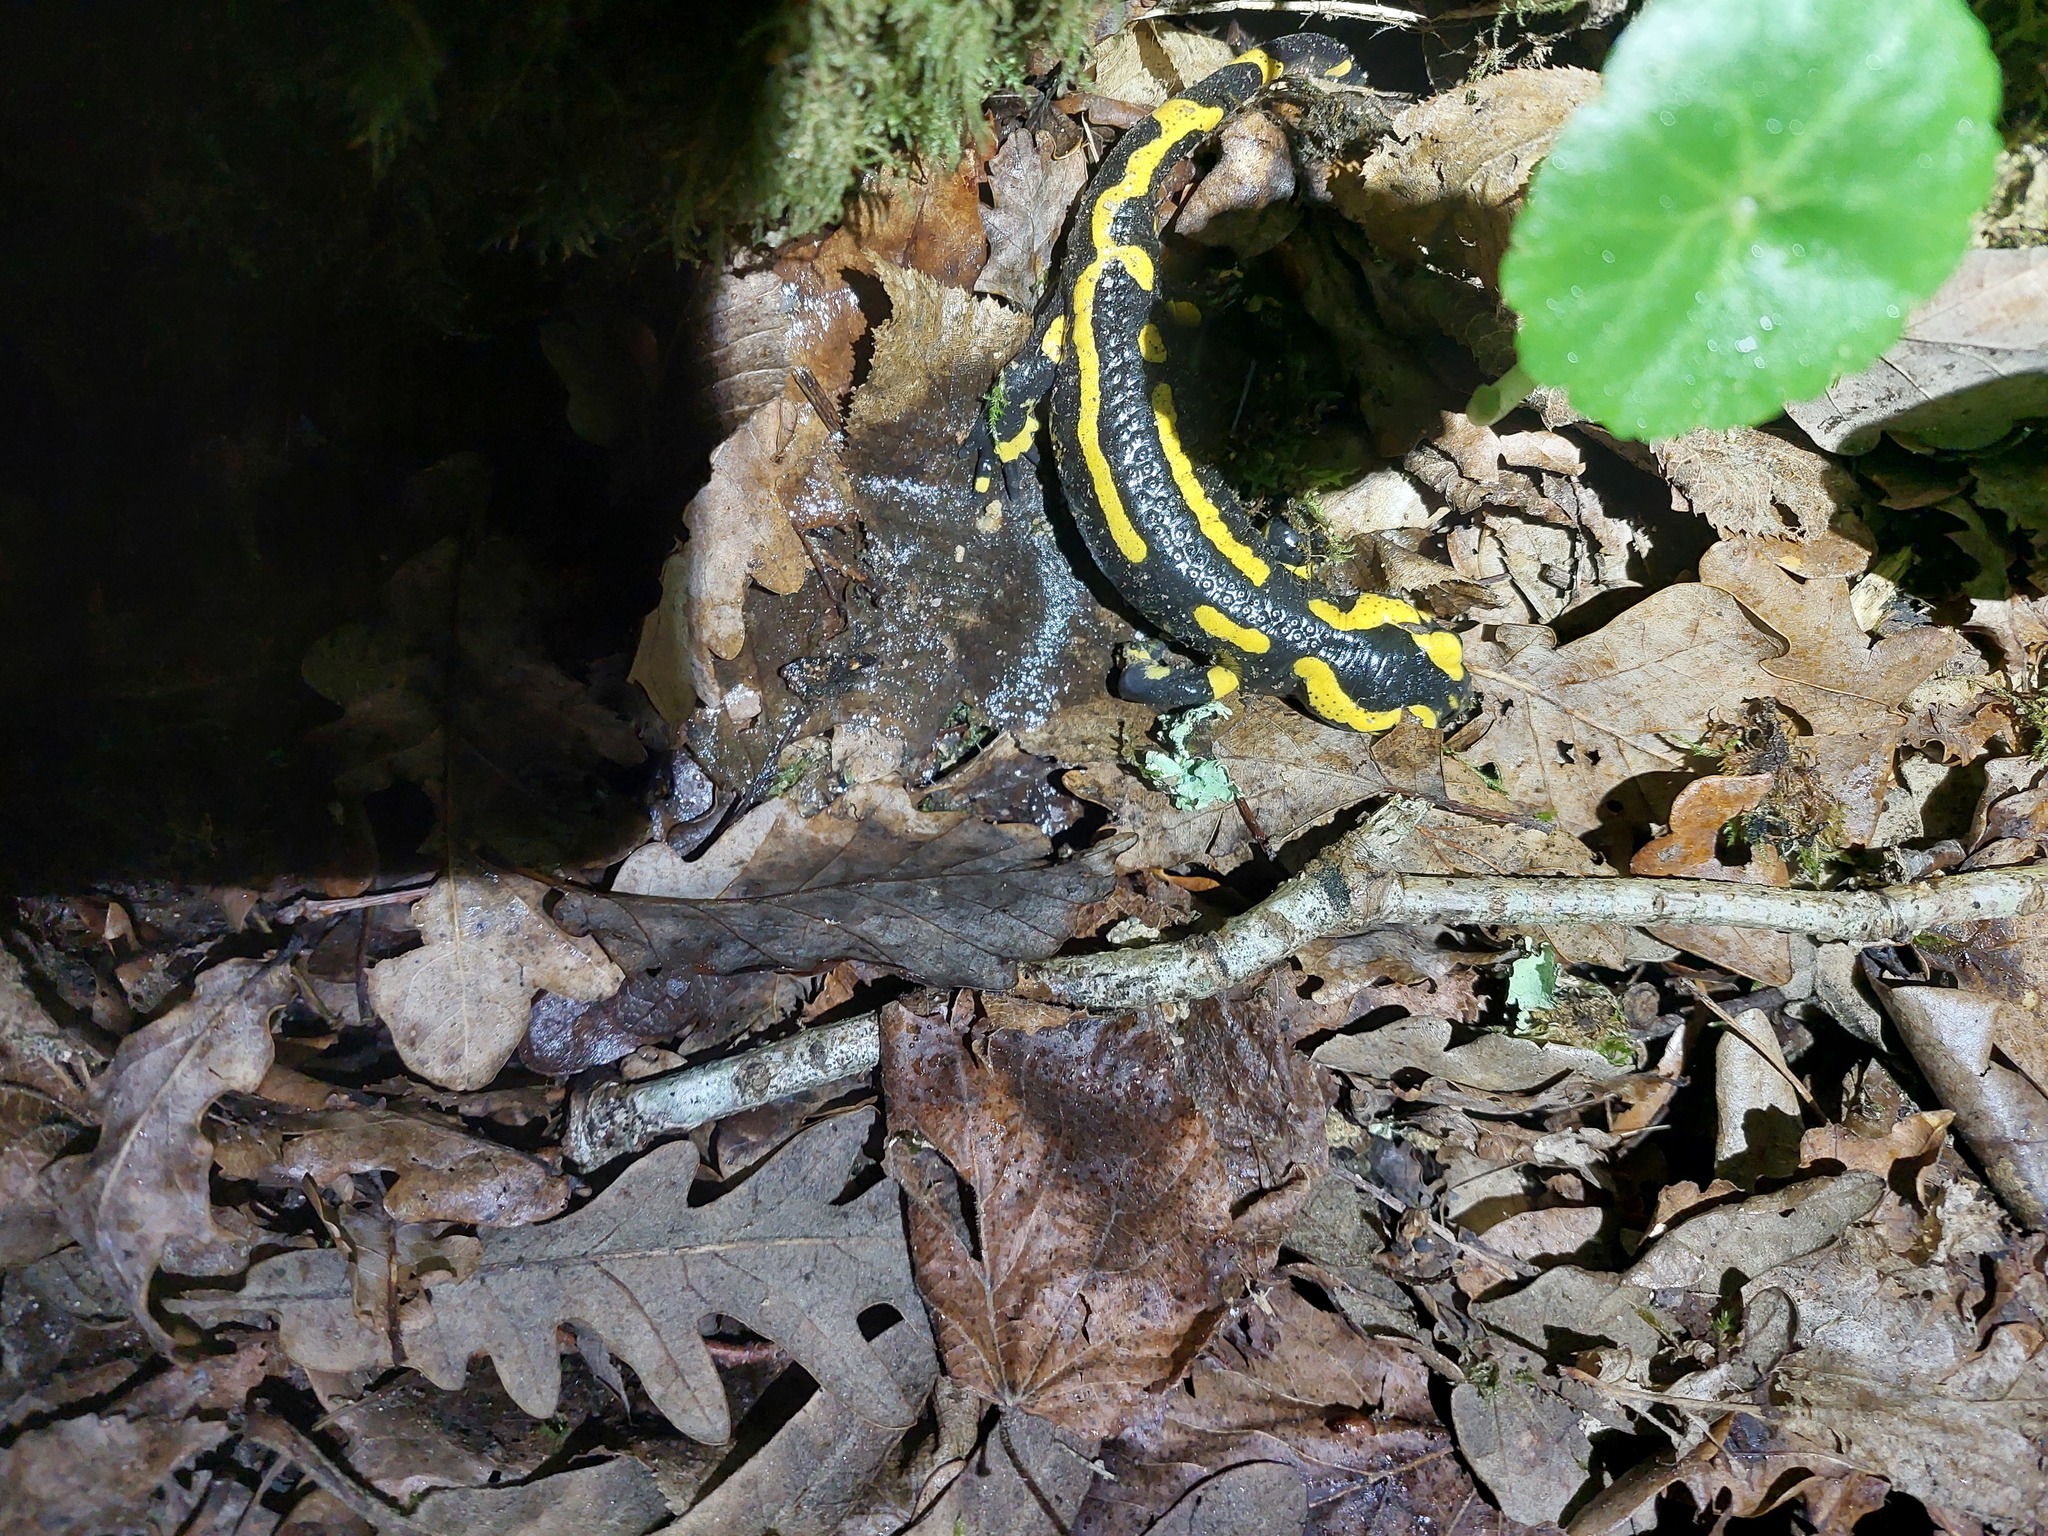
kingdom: Animalia
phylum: Chordata
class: Amphibia
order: Caudata
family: Salamandridae
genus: Salamandra
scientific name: Salamandra salamandra
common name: Fire salamander
